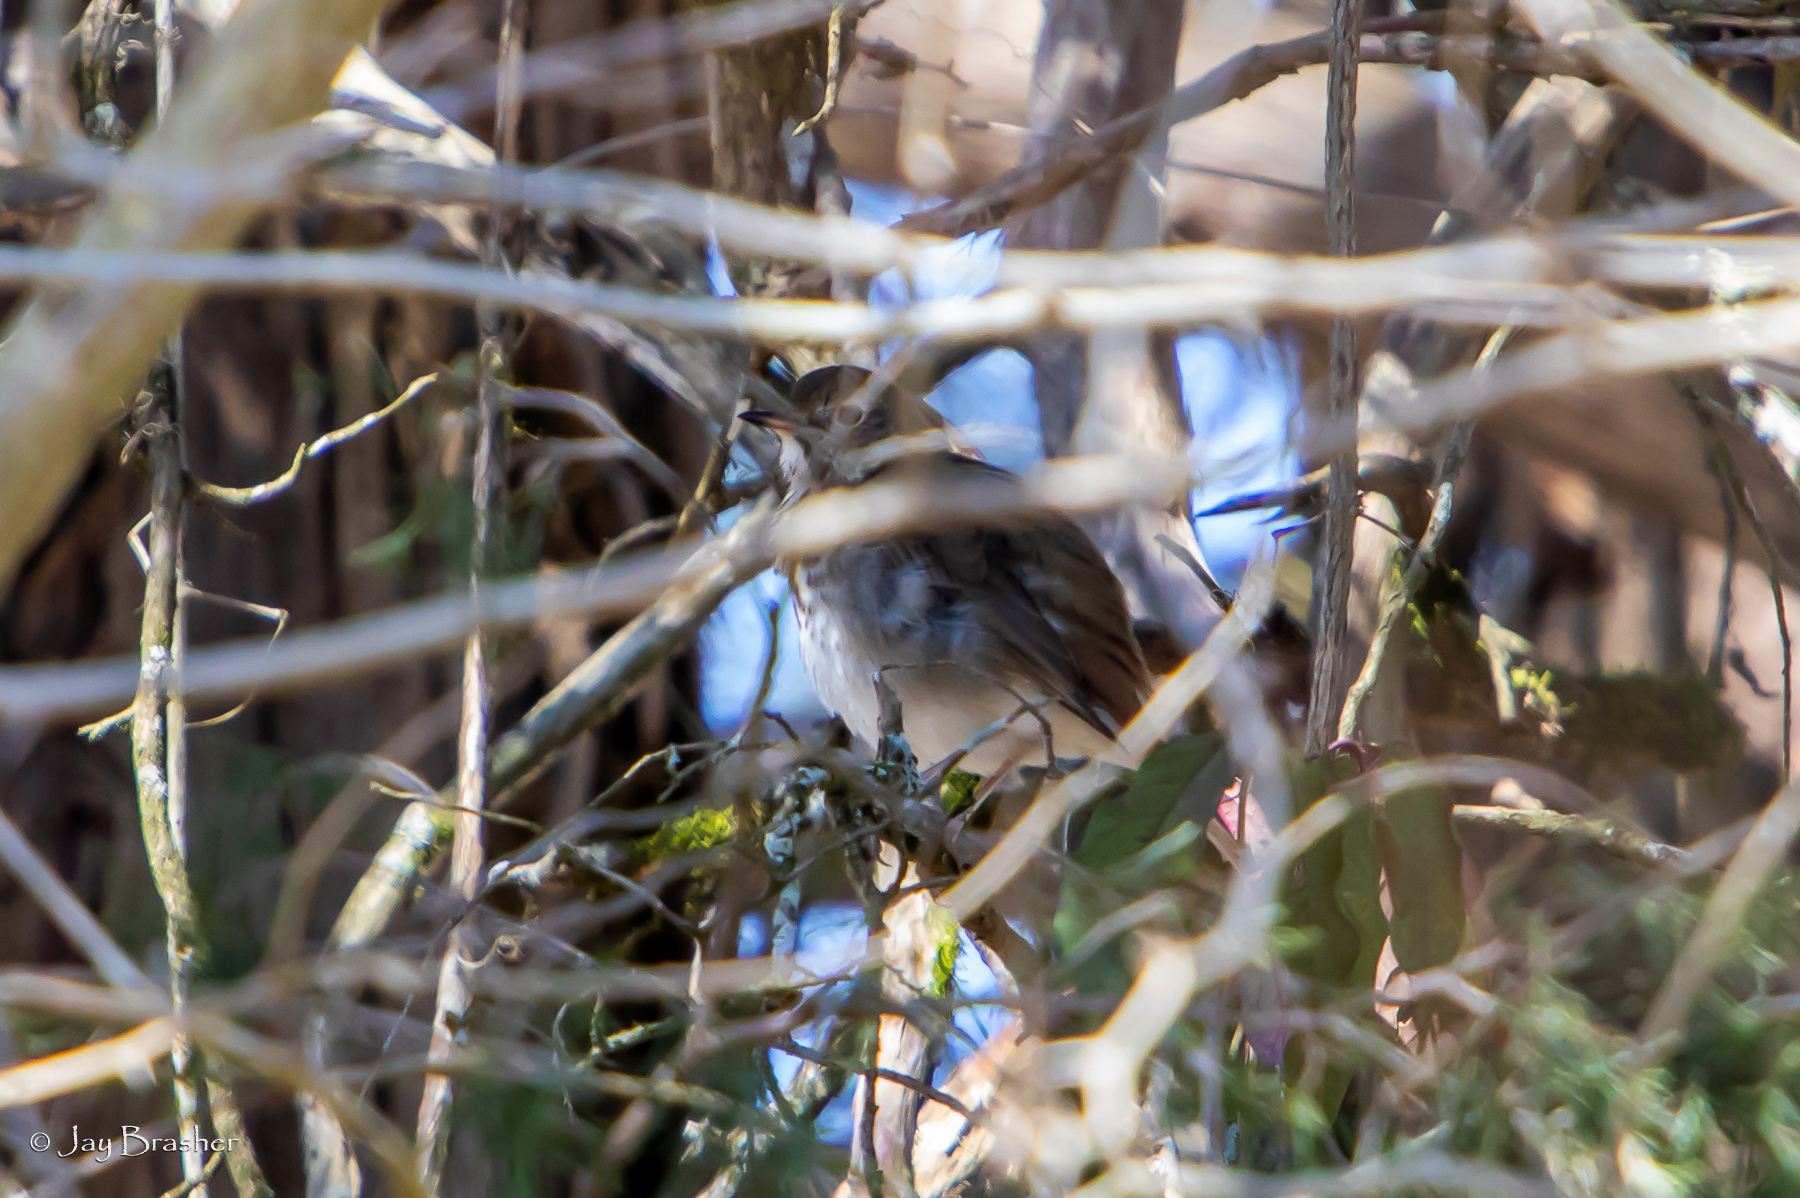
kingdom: Animalia
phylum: Chordata
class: Aves
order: Passeriformes
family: Turdidae
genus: Catharus
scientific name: Catharus guttatus
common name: Hermit thrush
